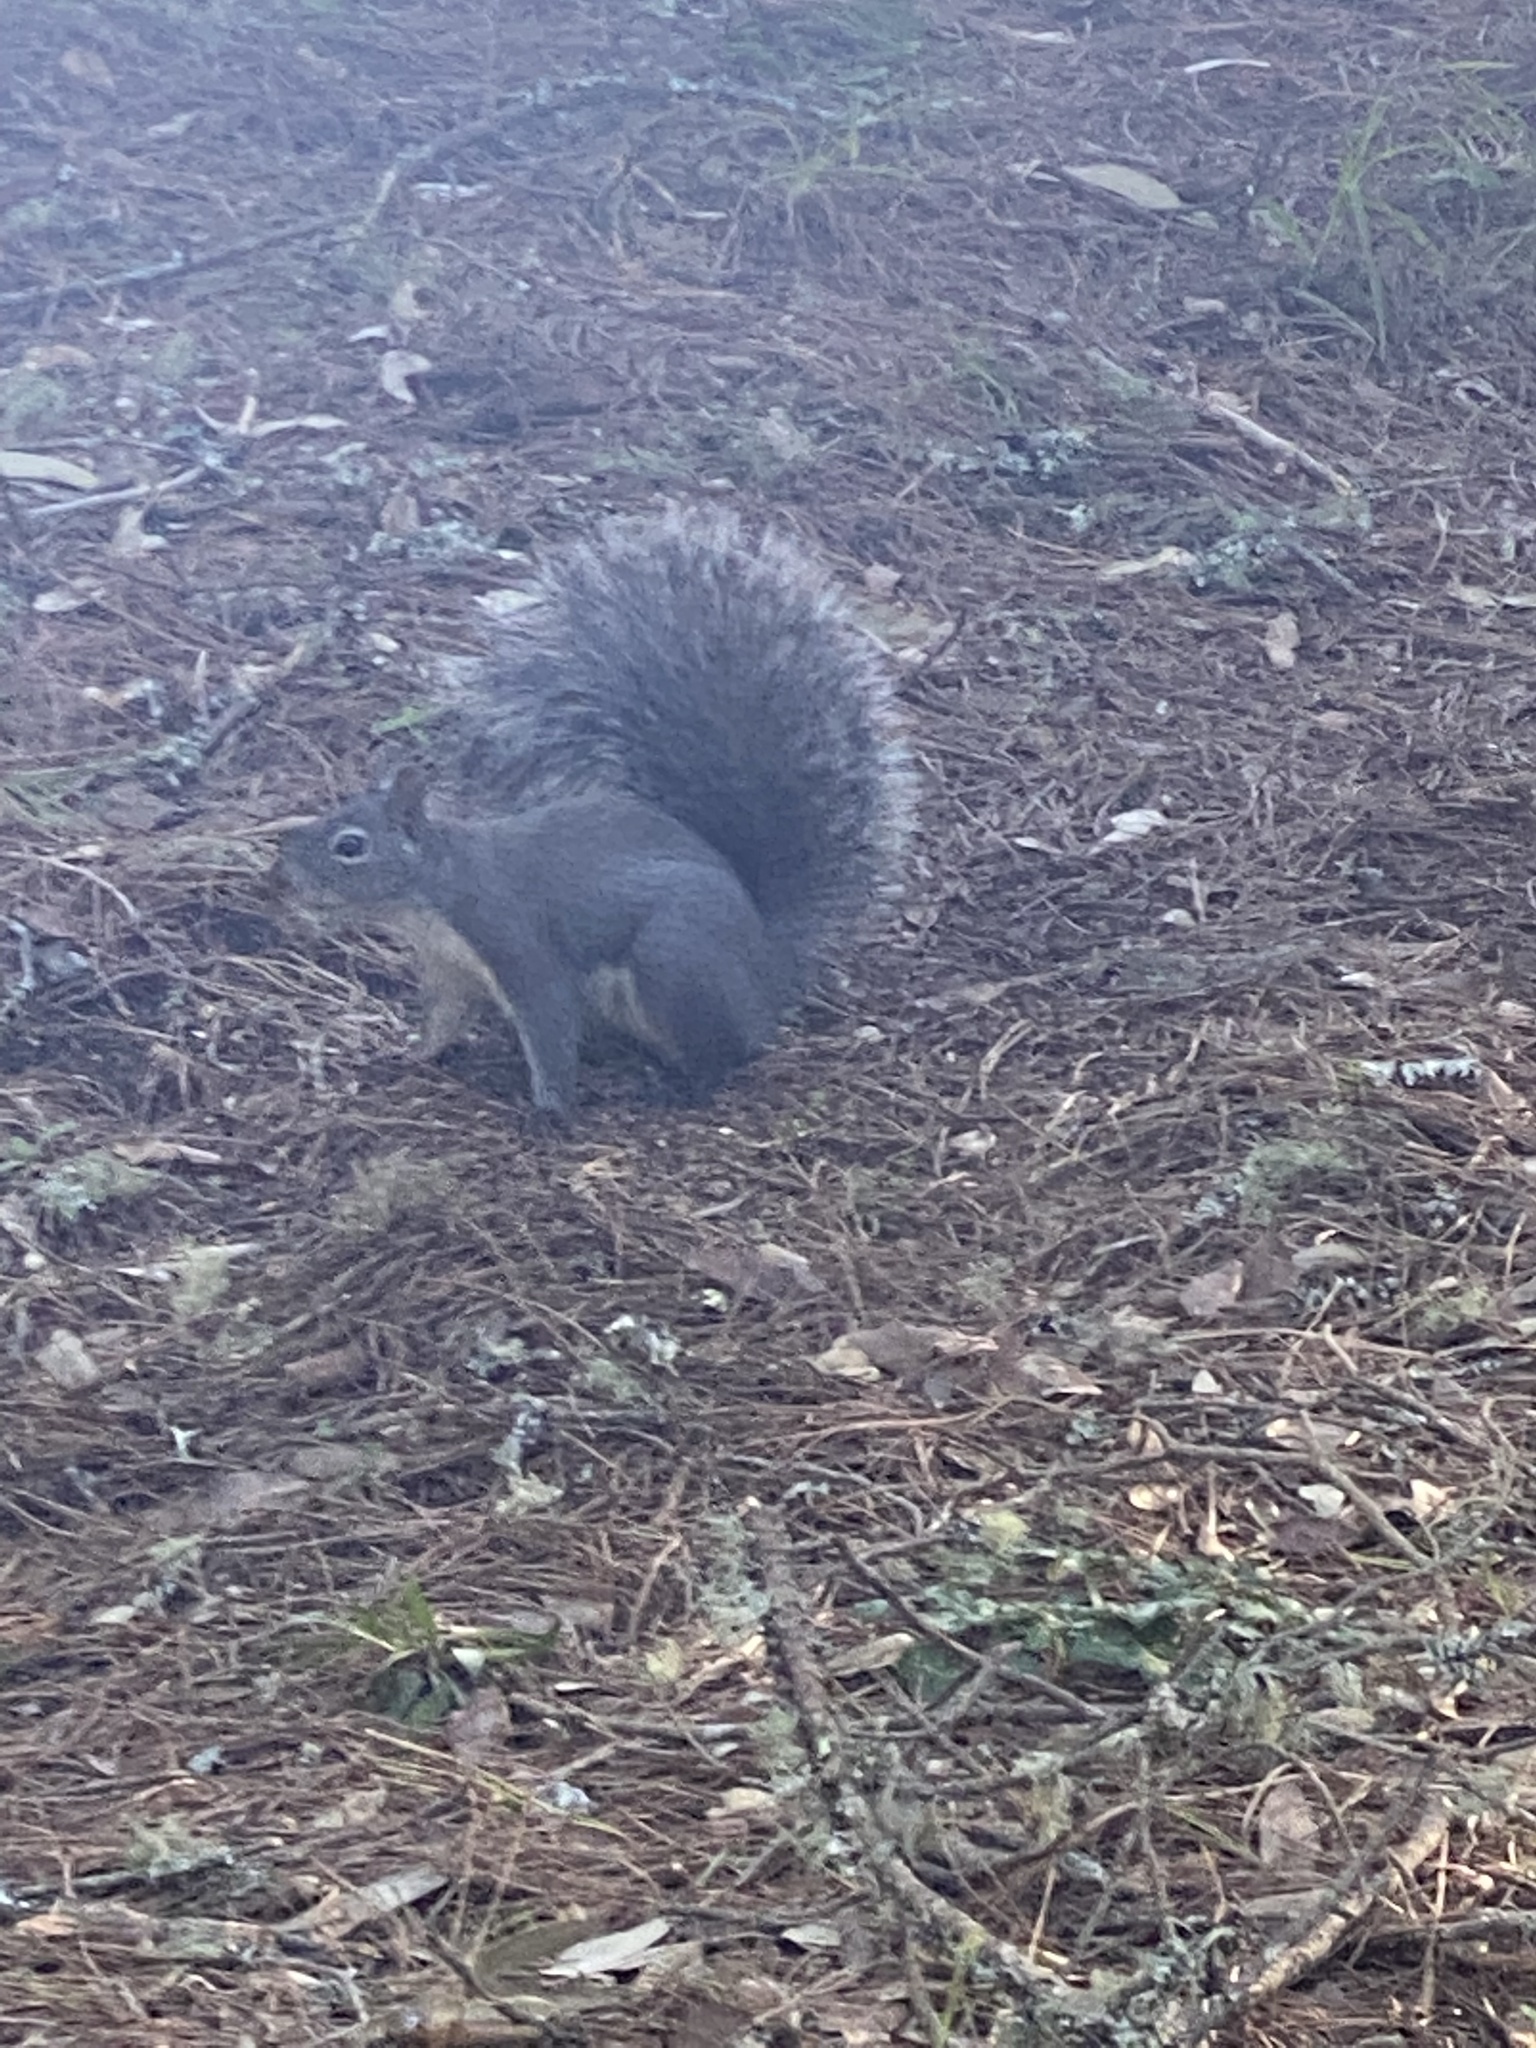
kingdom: Animalia
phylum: Chordata
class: Mammalia
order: Rodentia
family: Sciuridae
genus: Sciurus
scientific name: Sciurus griseus
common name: Western gray squirrel
